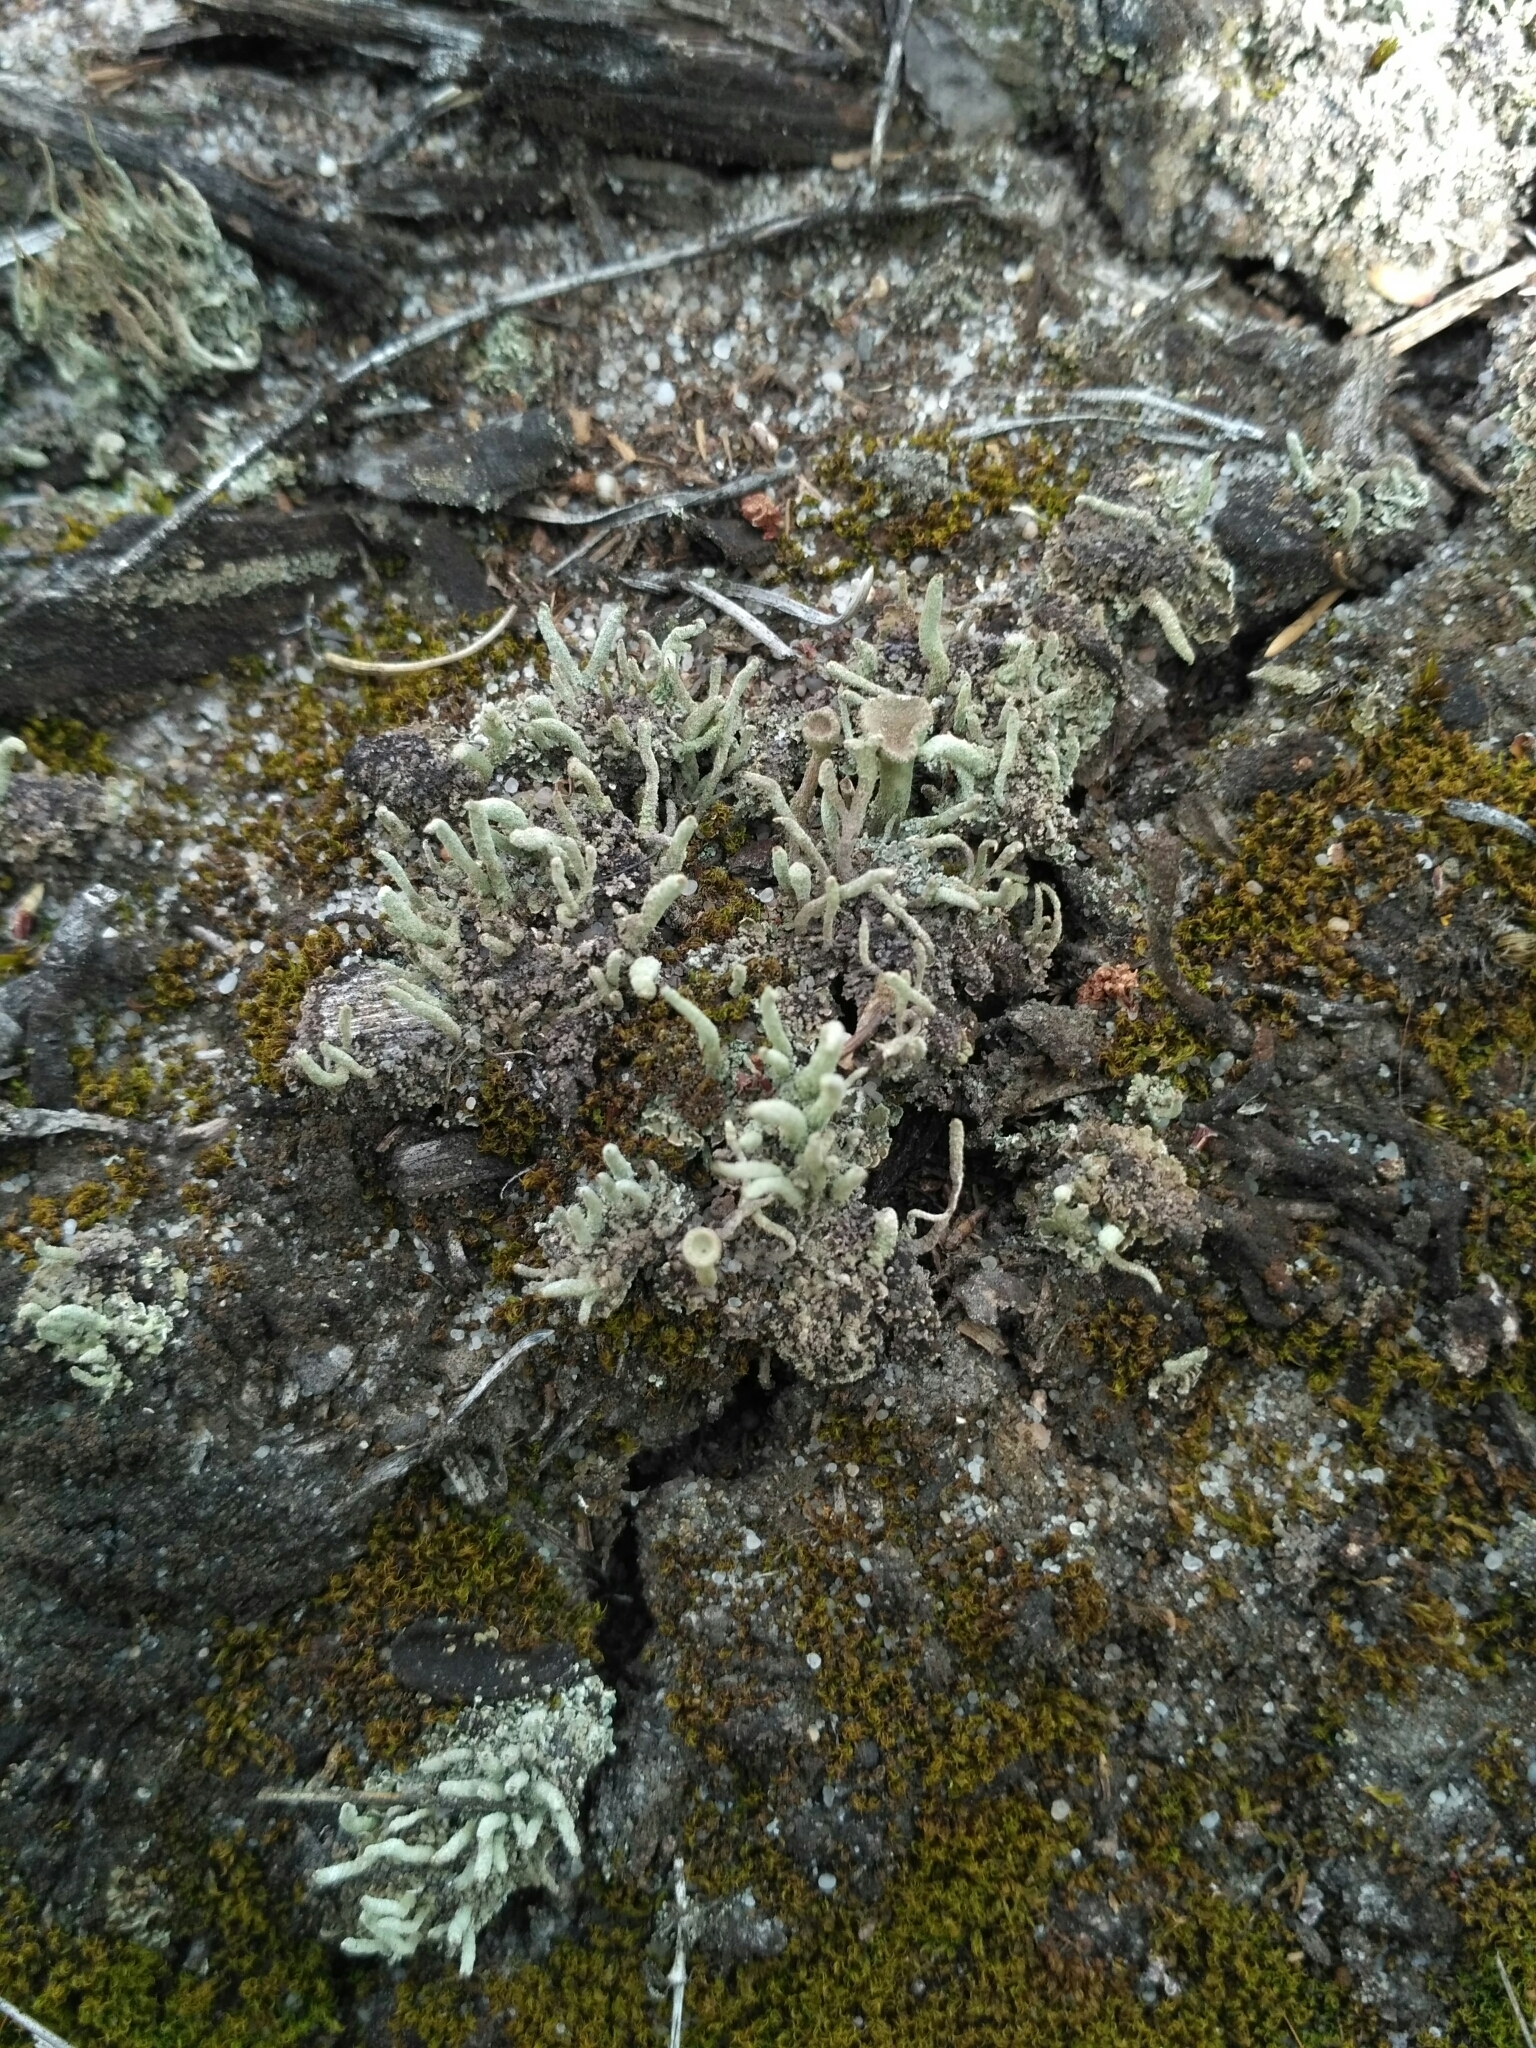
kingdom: Fungi
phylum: Ascomycota
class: Lecanoromycetes
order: Lecanorales
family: Cladoniaceae
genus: Cladonia
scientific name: Cladonia subulata
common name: Antlered powderhorn
